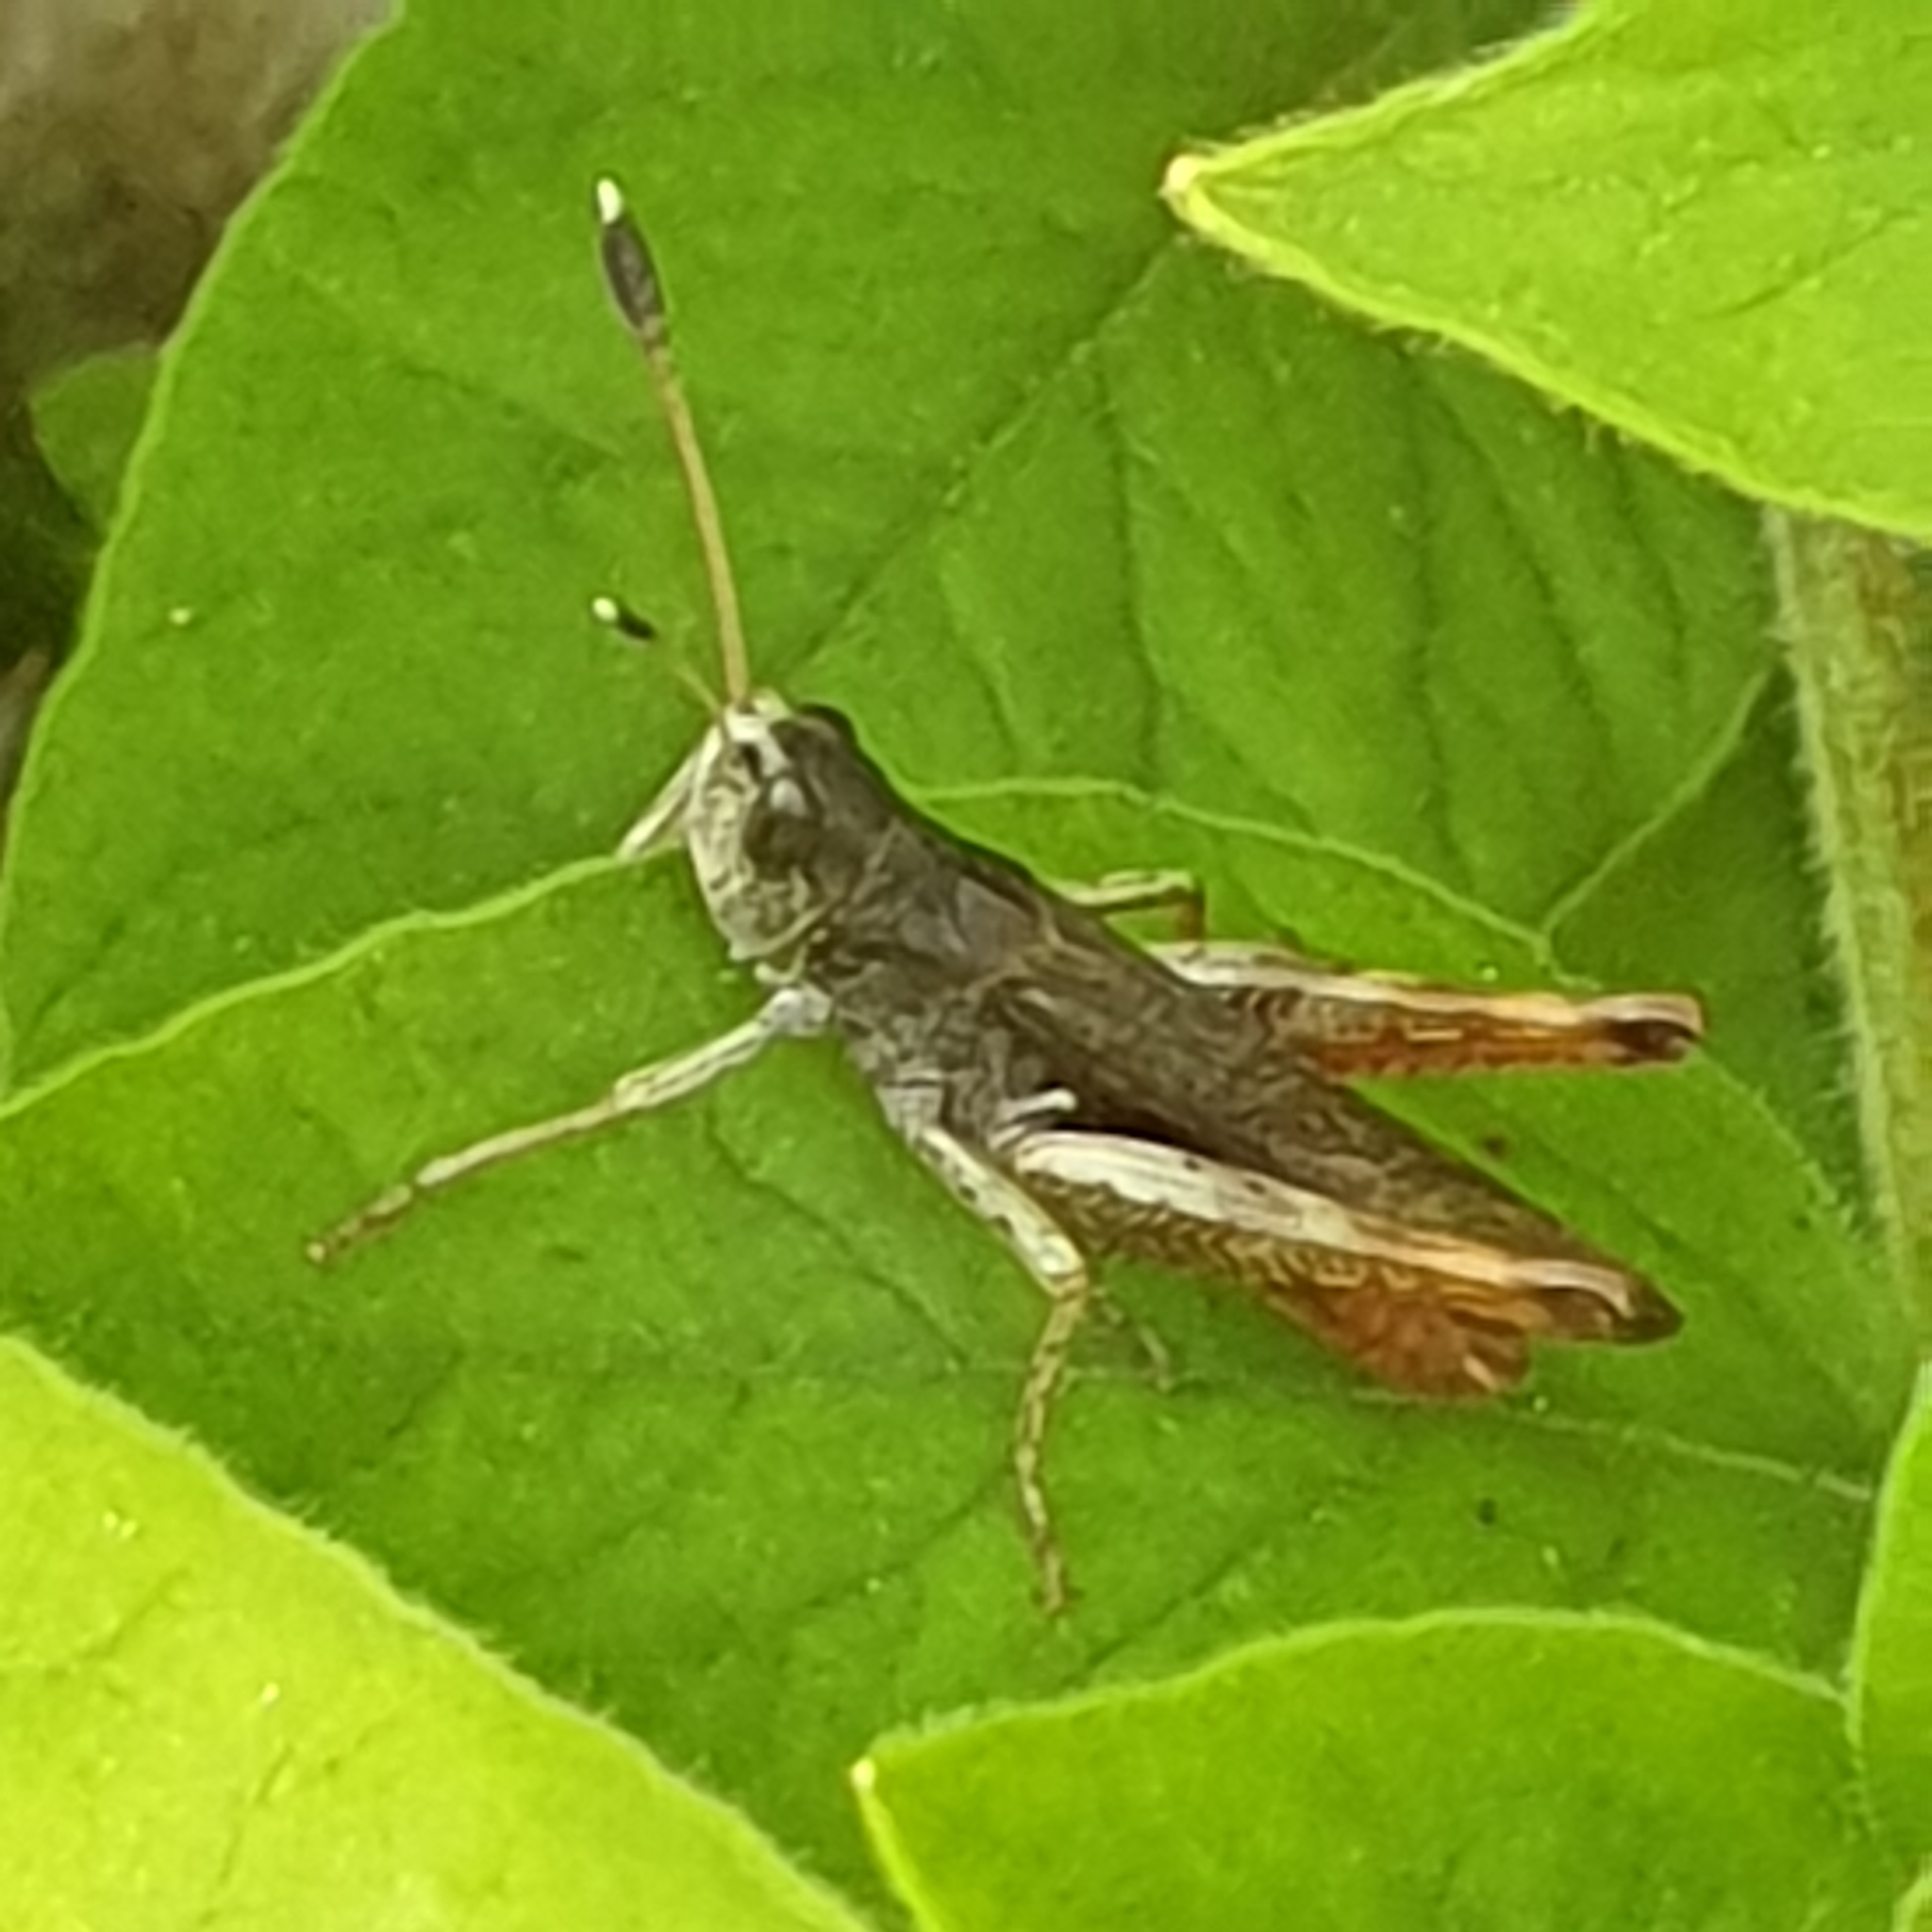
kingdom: Animalia
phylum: Arthropoda
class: Insecta
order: Orthoptera
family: Acrididae
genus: Gomphocerippus
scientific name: Gomphocerippus rufus
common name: Rufous grasshopper
